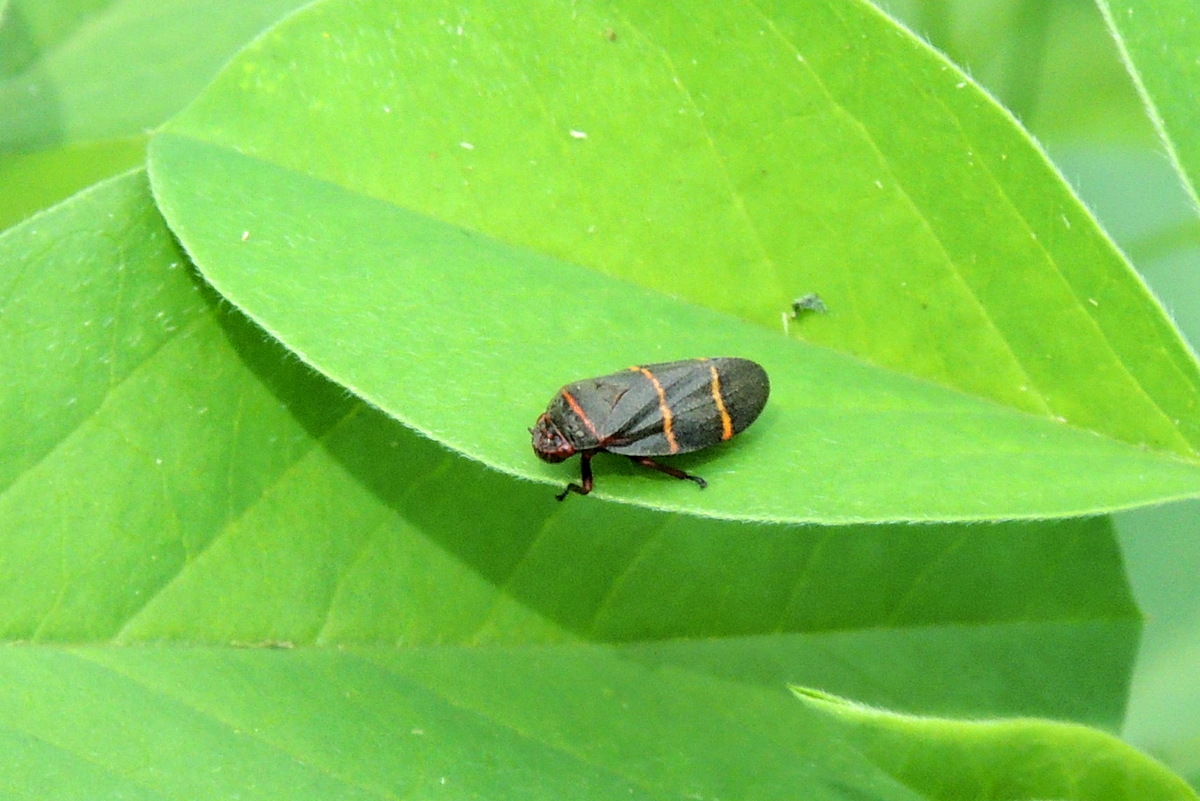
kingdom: Animalia
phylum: Arthropoda
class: Insecta
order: Hemiptera
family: Cercopidae
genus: Prosapia
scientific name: Prosapia bicincta
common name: Twolined spittlebug
